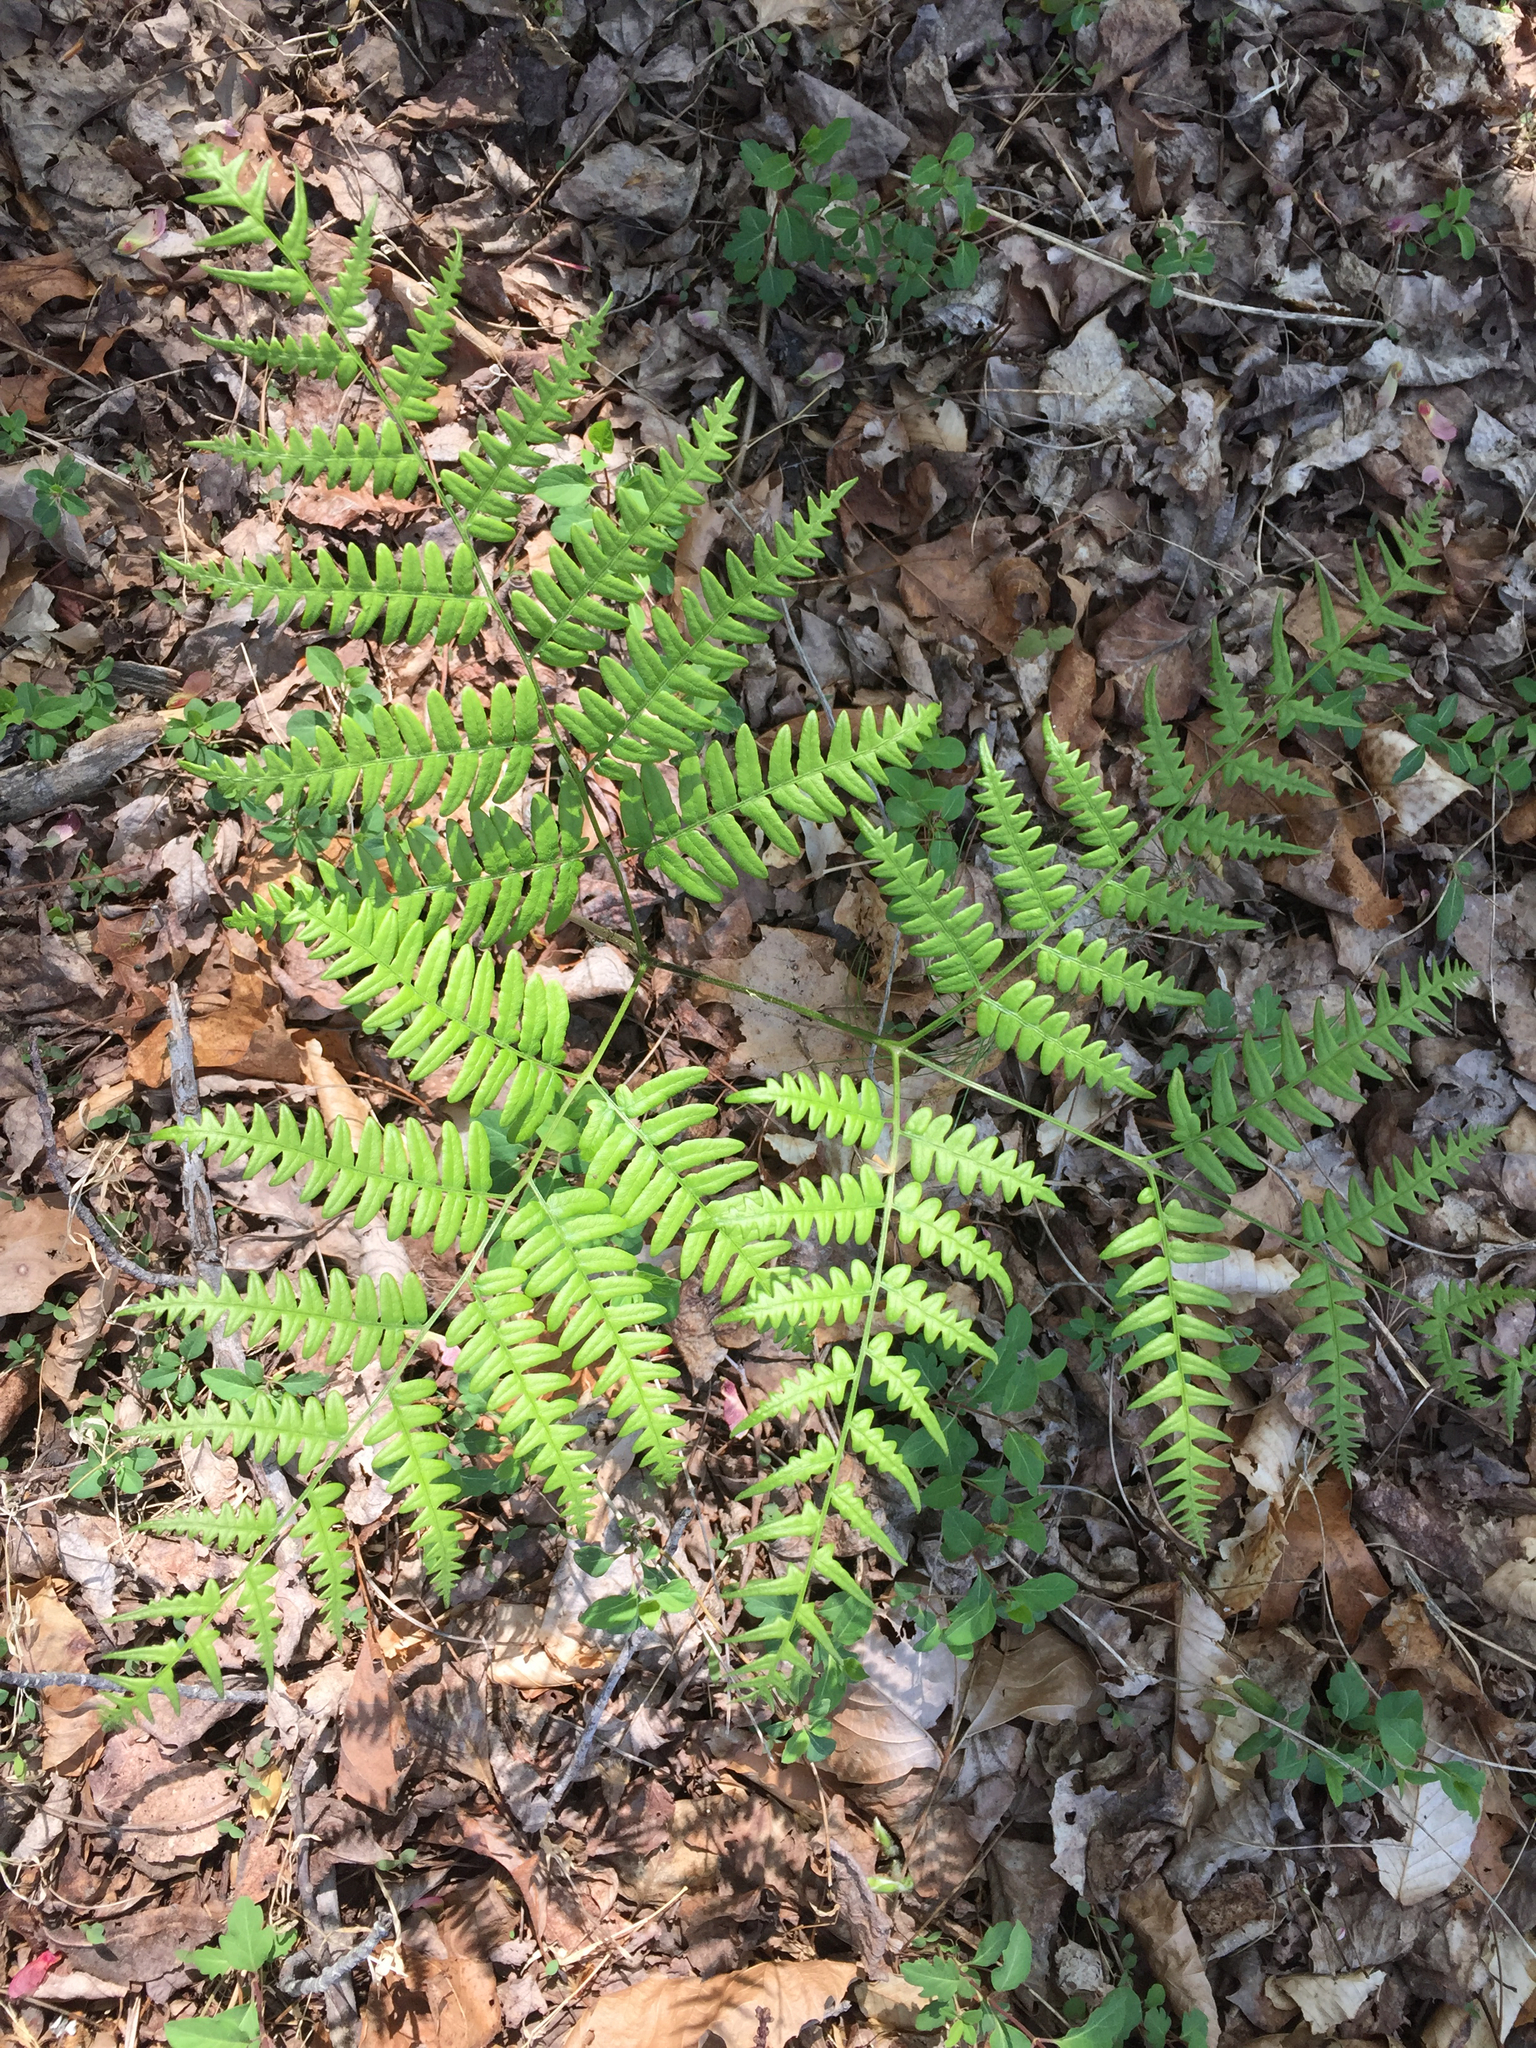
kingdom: Plantae
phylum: Tracheophyta
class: Polypodiopsida
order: Polypodiales
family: Dennstaedtiaceae
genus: Pteridium
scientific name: Pteridium aquilinum
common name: Bracken
